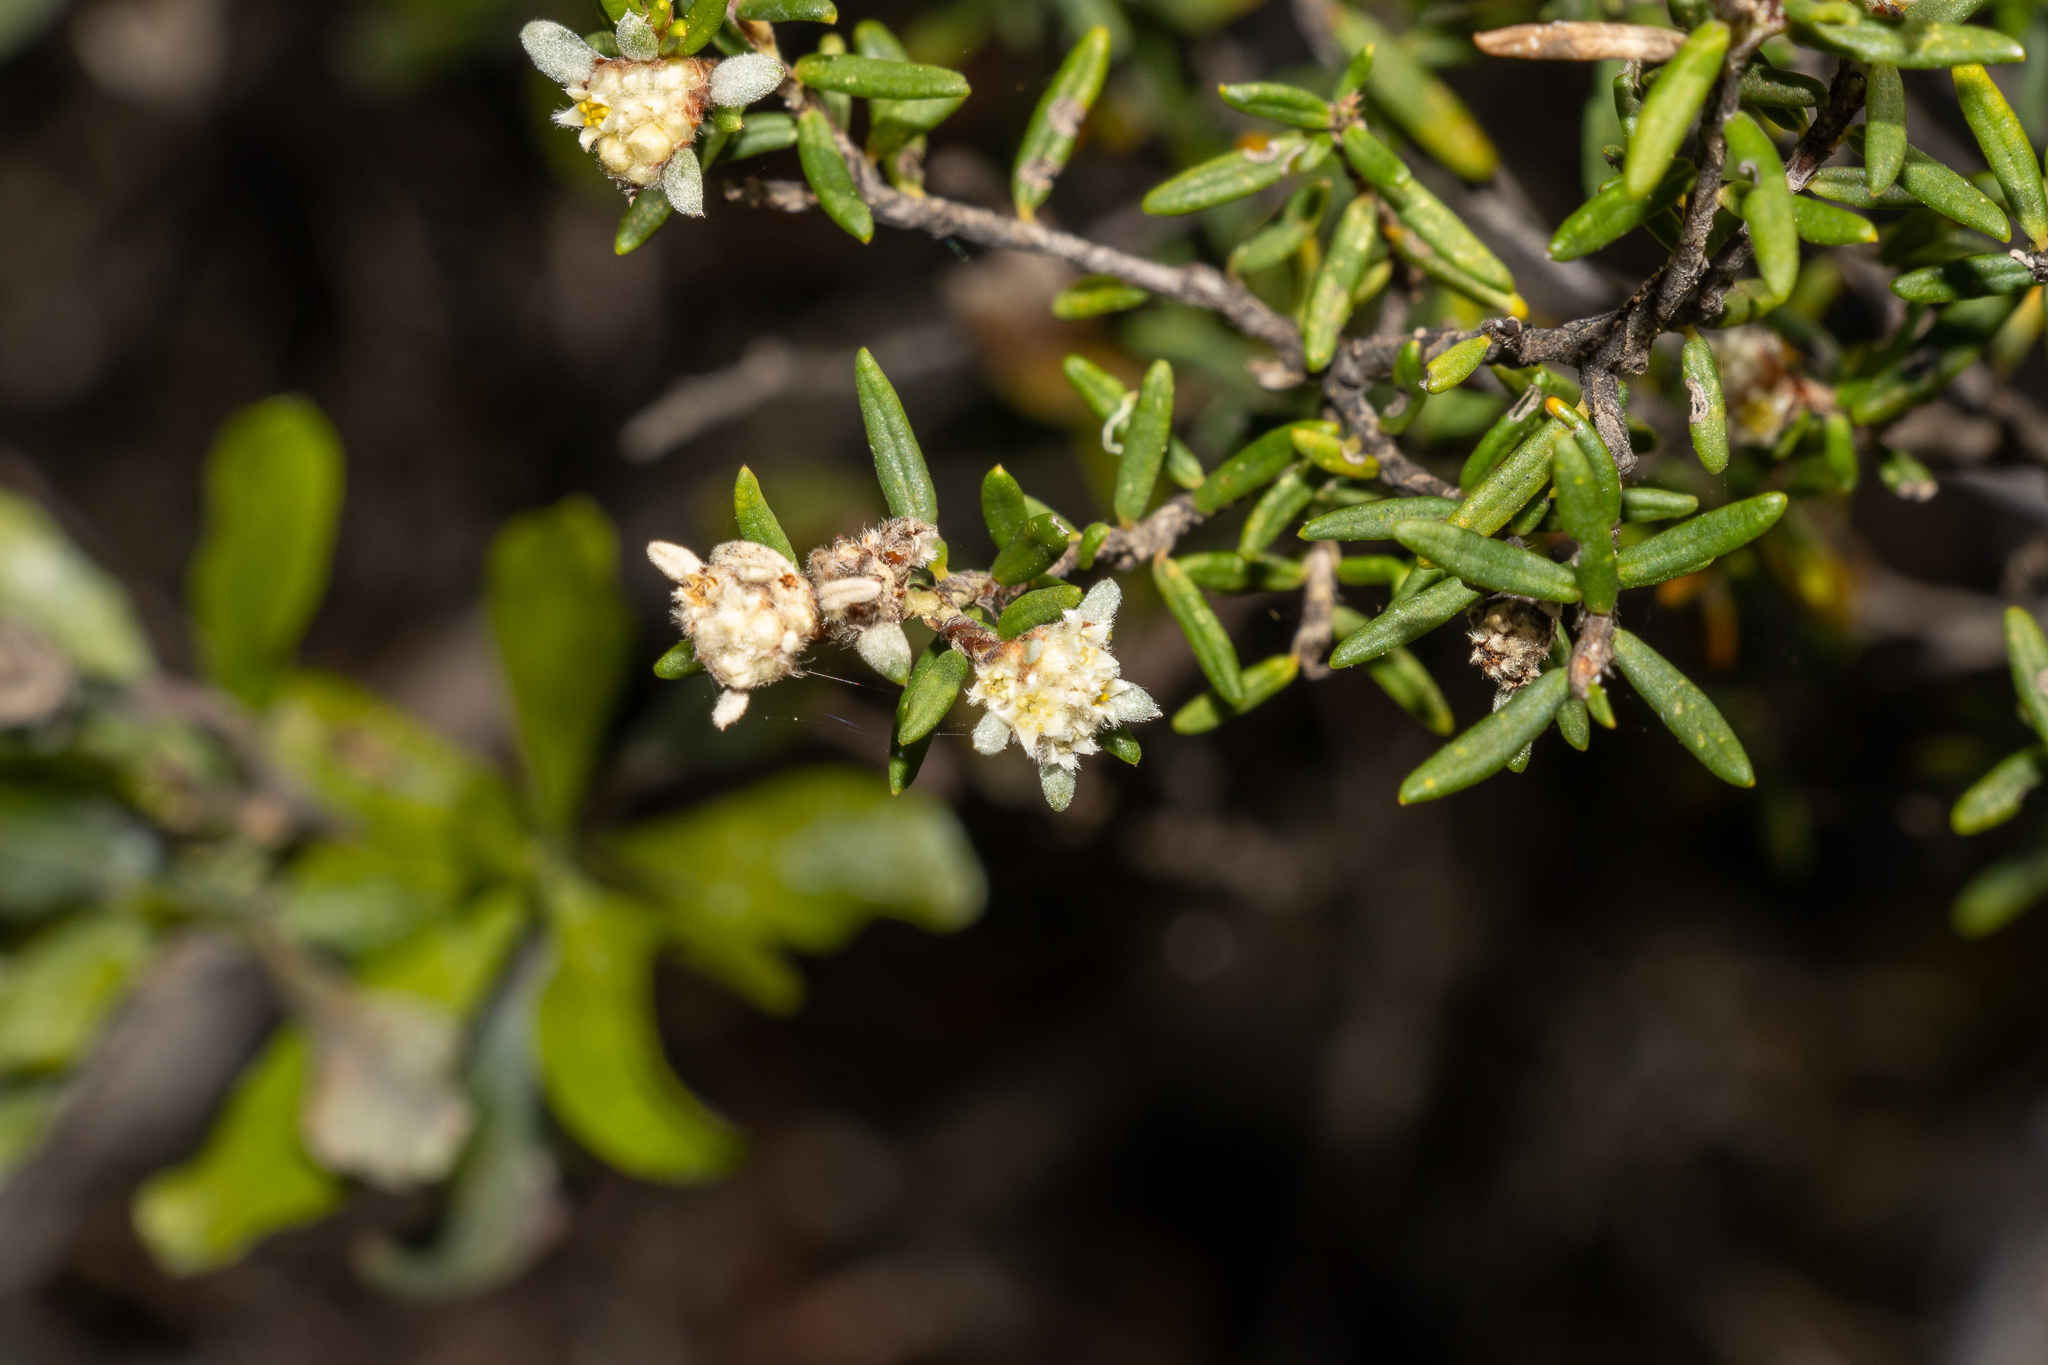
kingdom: Plantae
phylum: Tracheophyta
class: Magnoliopsida
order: Rosales
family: Rhamnaceae
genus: Spyridium
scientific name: Spyridium eriocephalum
